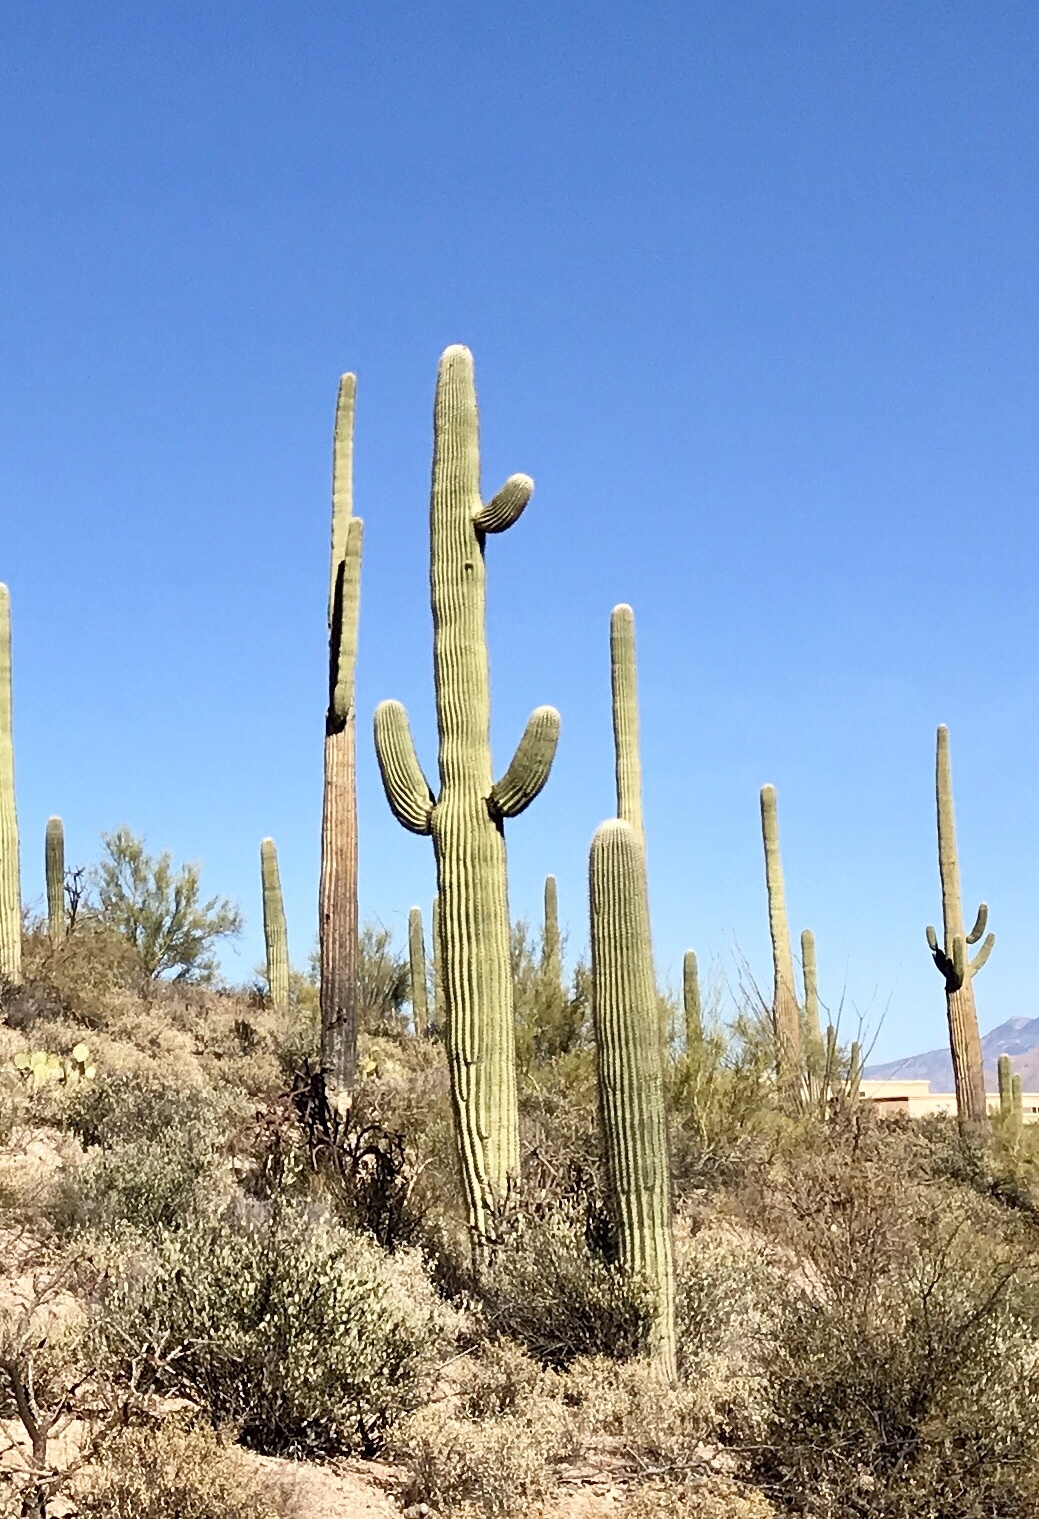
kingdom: Plantae
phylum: Tracheophyta
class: Magnoliopsida
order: Caryophyllales
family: Cactaceae
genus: Carnegiea
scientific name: Carnegiea gigantea
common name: Saguaro
